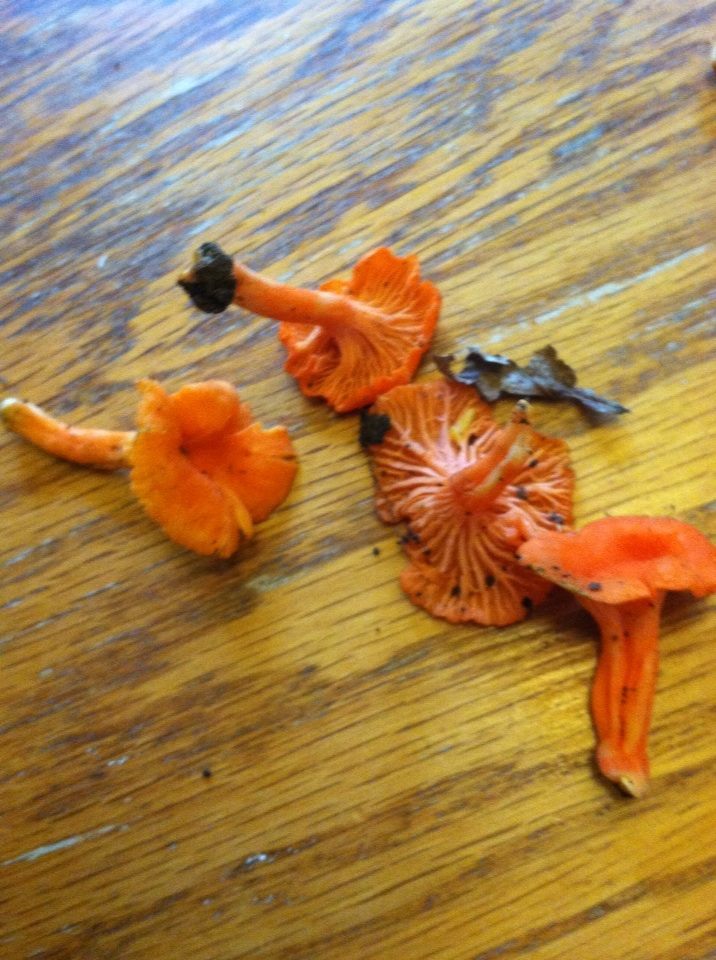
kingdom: Fungi
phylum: Basidiomycota
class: Agaricomycetes
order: Cantharellales
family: Hydnaceae
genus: Cantharellus
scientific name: Cantharellus cinnabarinus
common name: Cinnabar chanterelle
